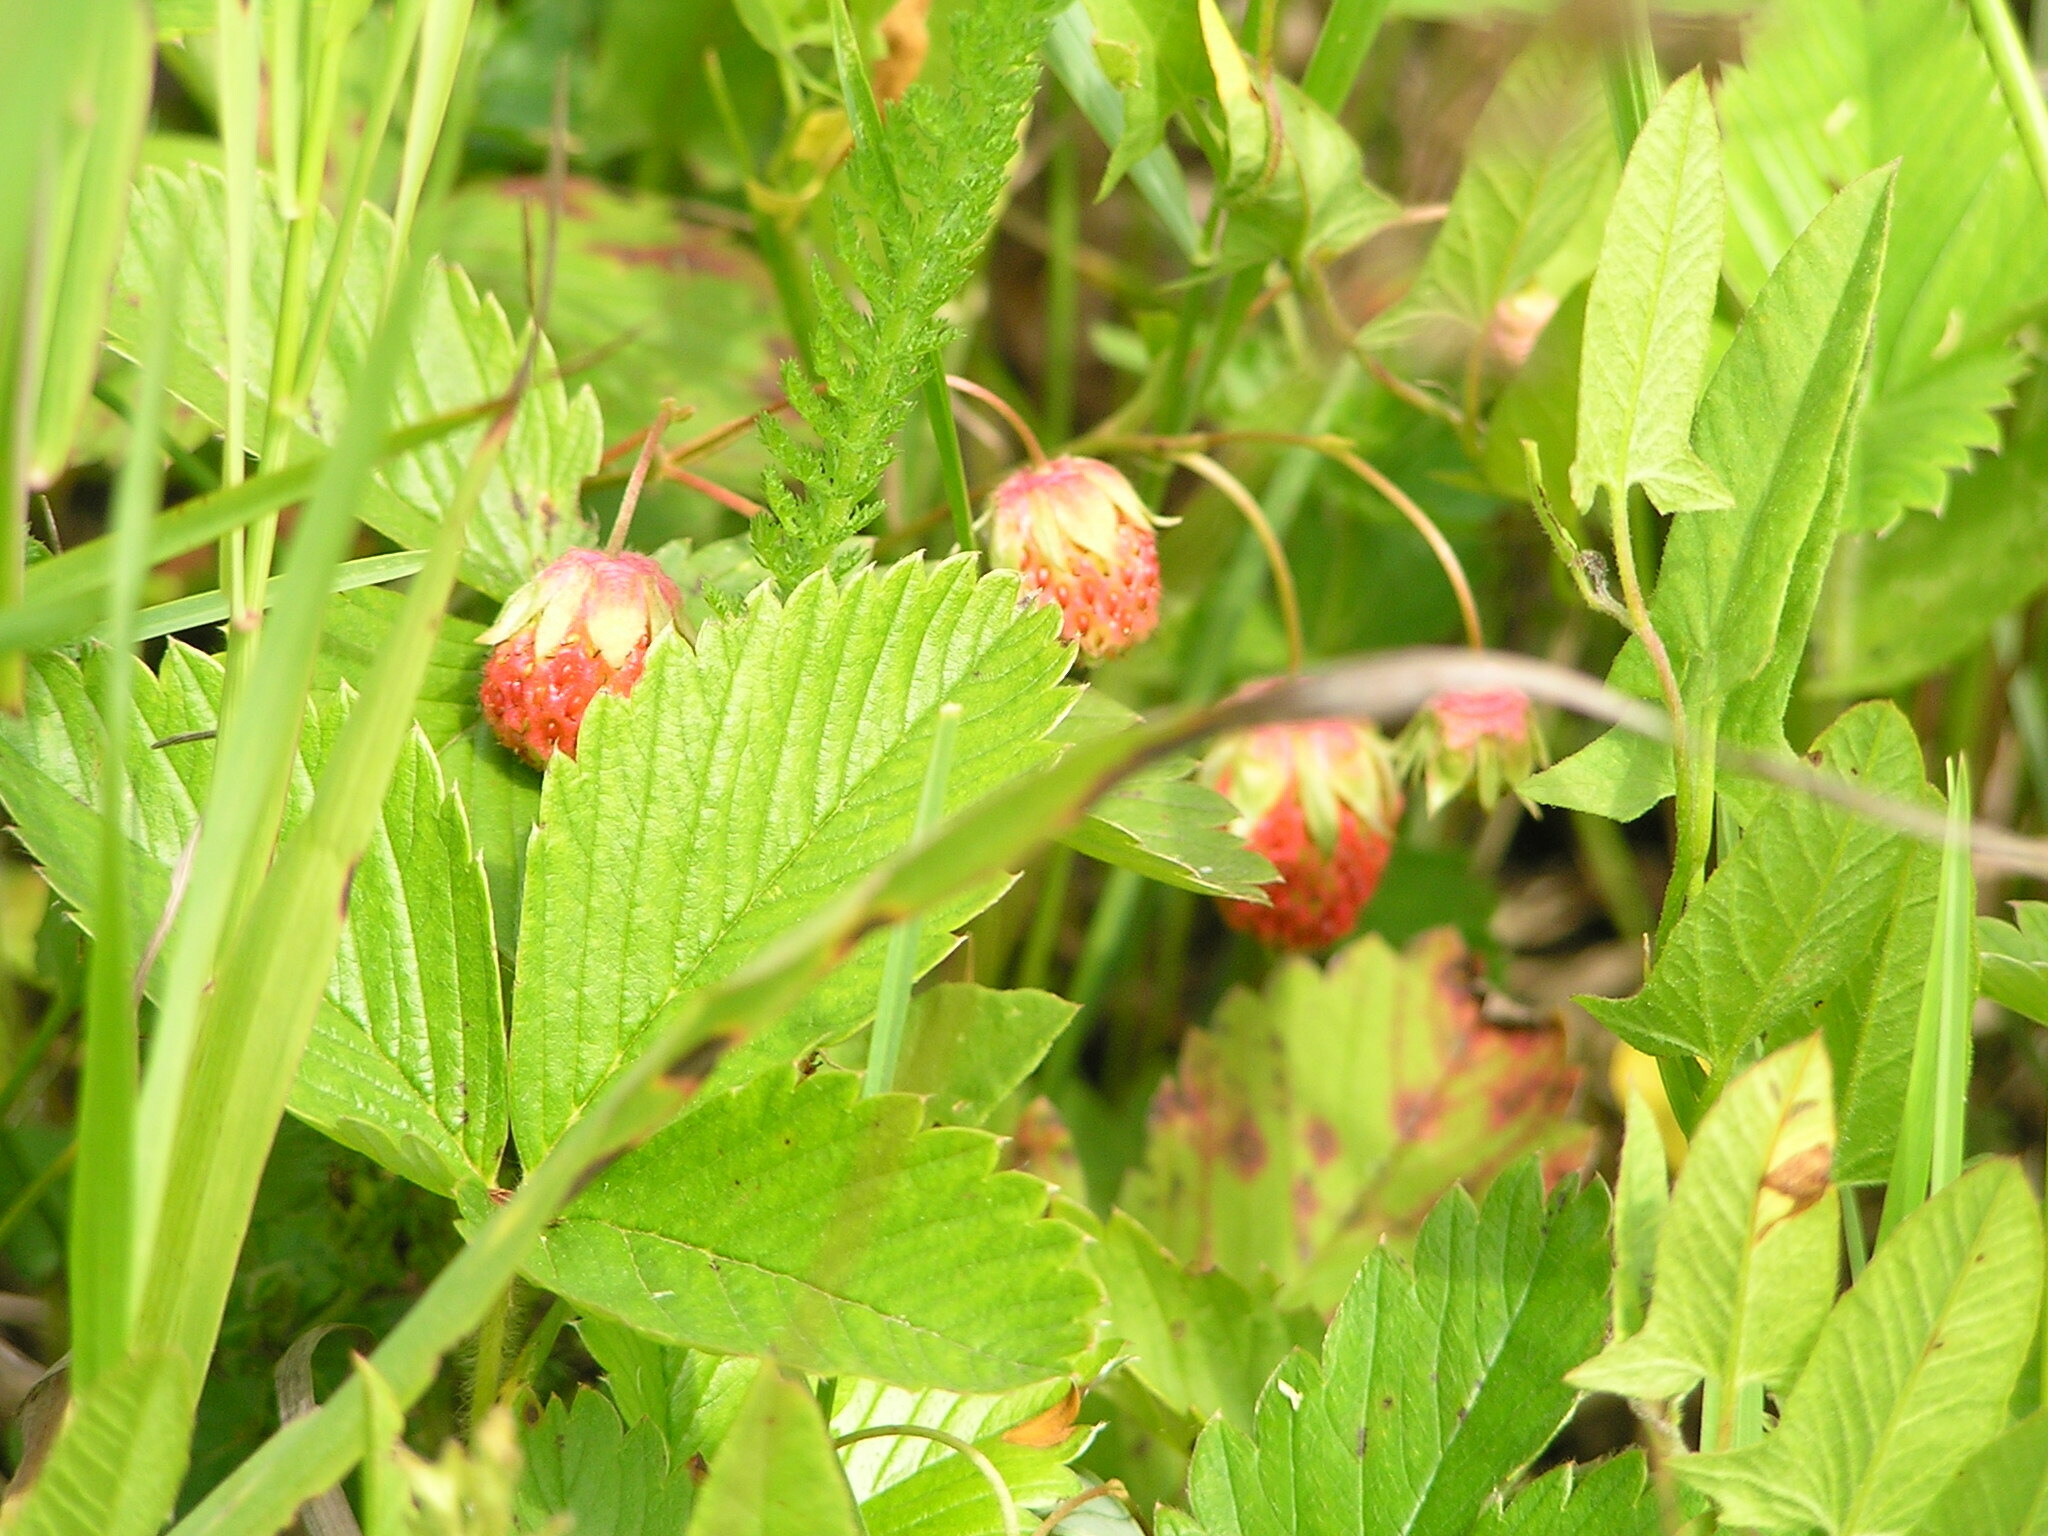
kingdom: Plantae
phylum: Tracheophyta
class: Magnoliopsida
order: Rosales
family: Rosaceae
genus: Fragaria
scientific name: Fragaria viridis
